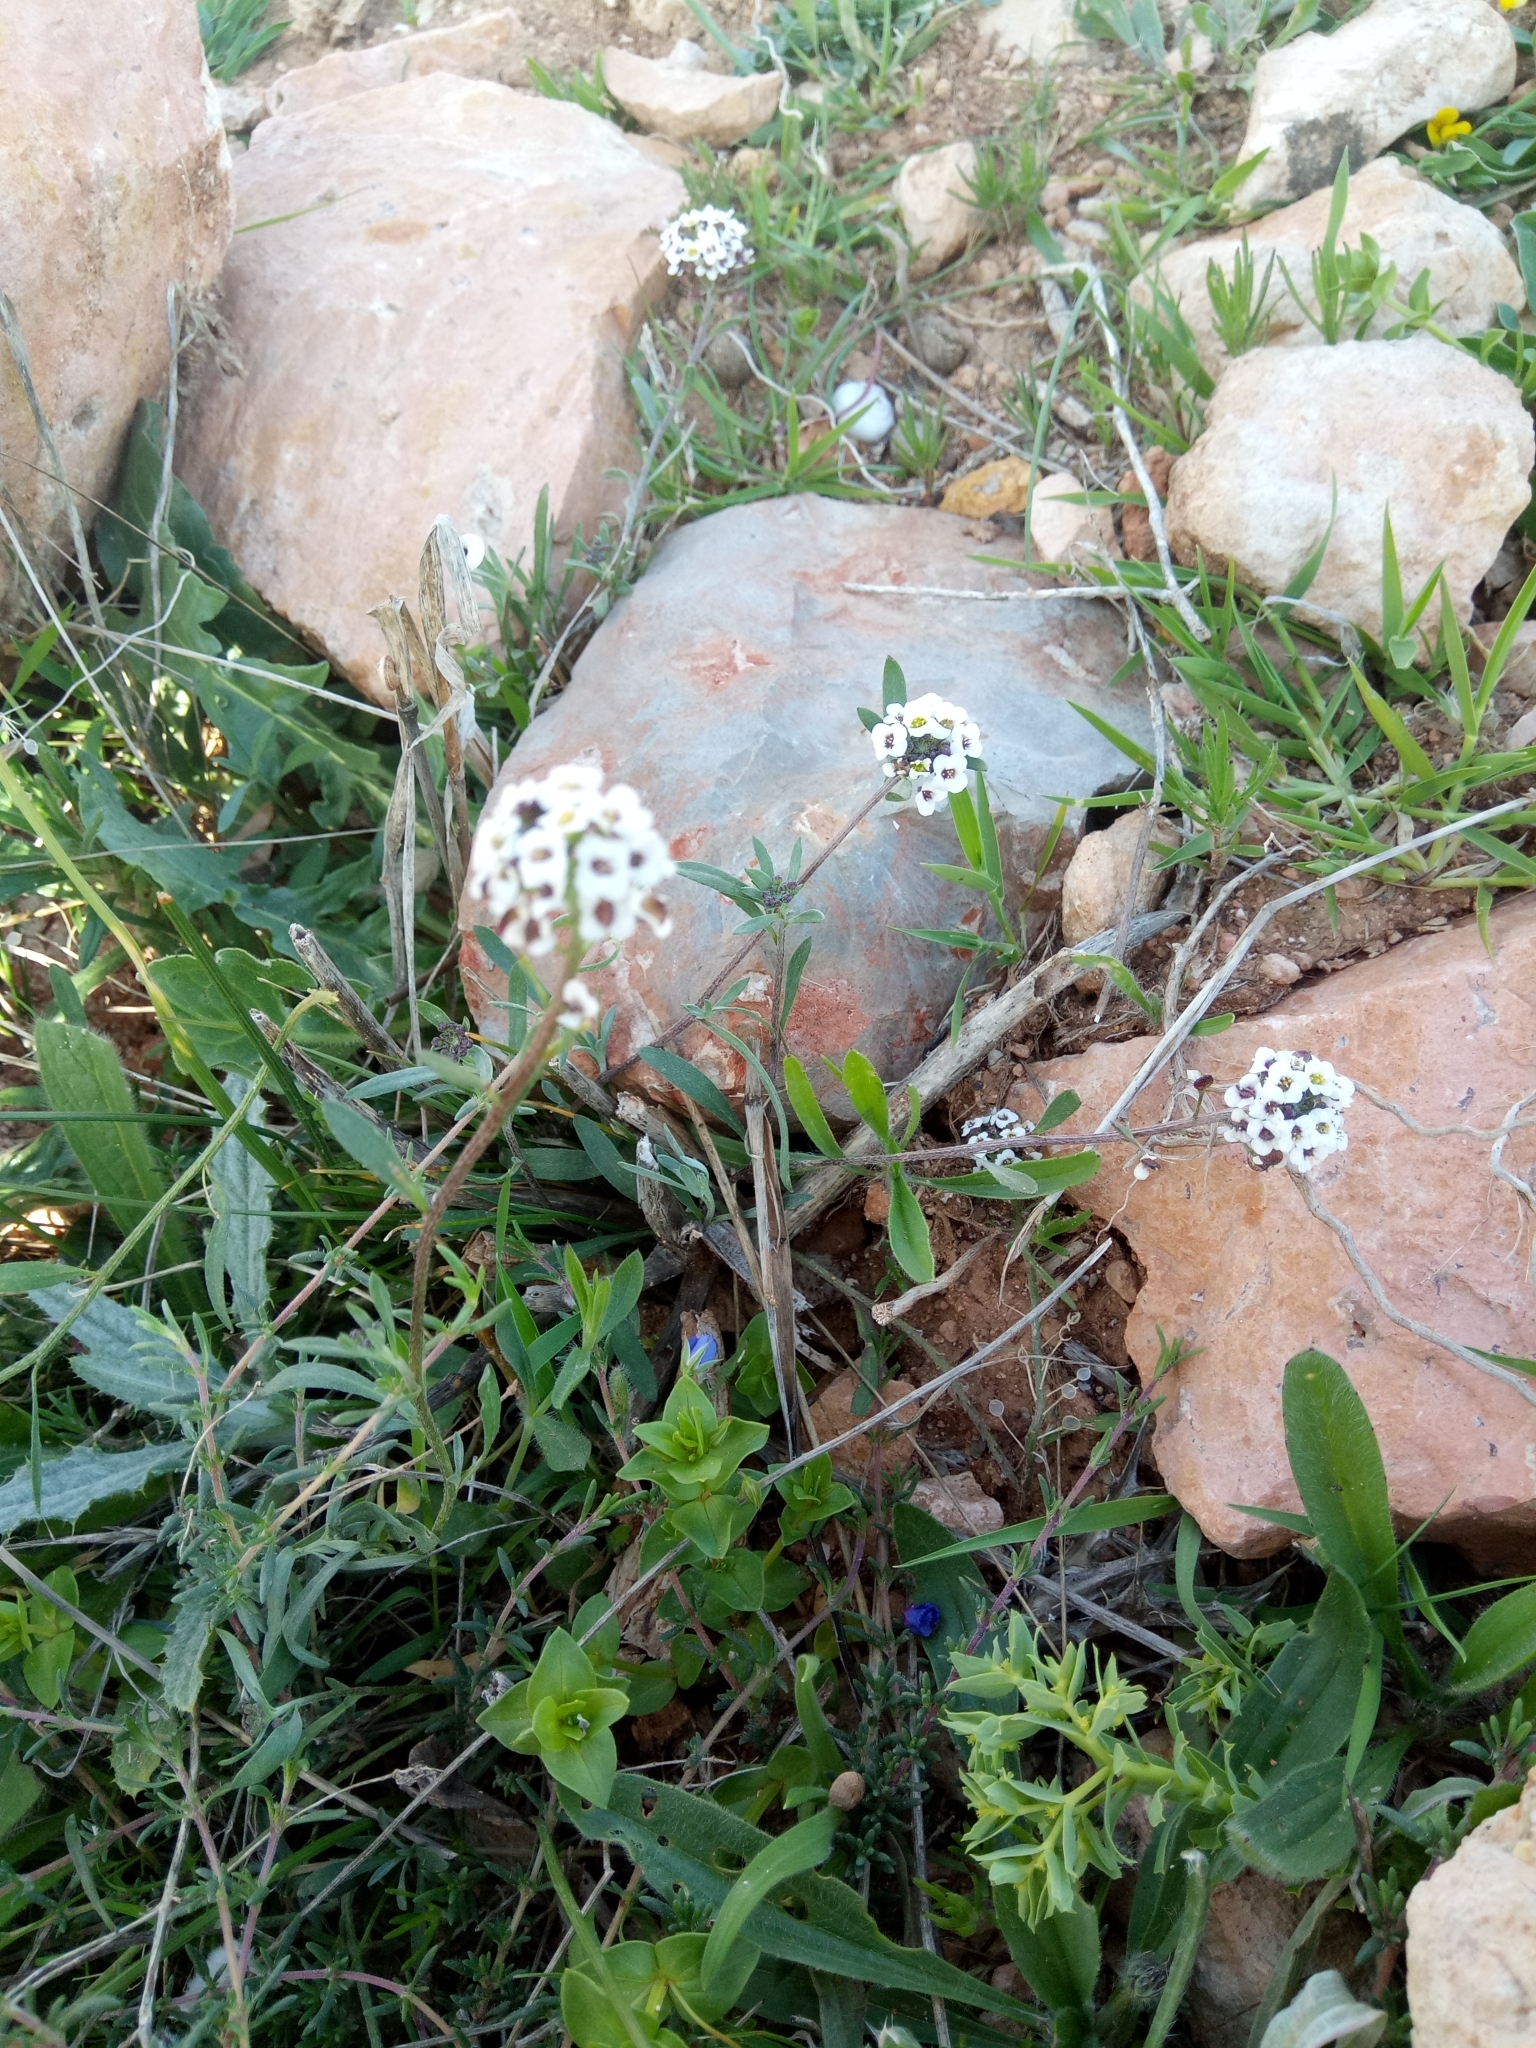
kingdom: Plantae
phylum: Tracheophyta
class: Magnoliopsida
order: Brassicales
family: Brassicaceae
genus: Lobularia
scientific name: Lobularia maritima
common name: Sweet alison
